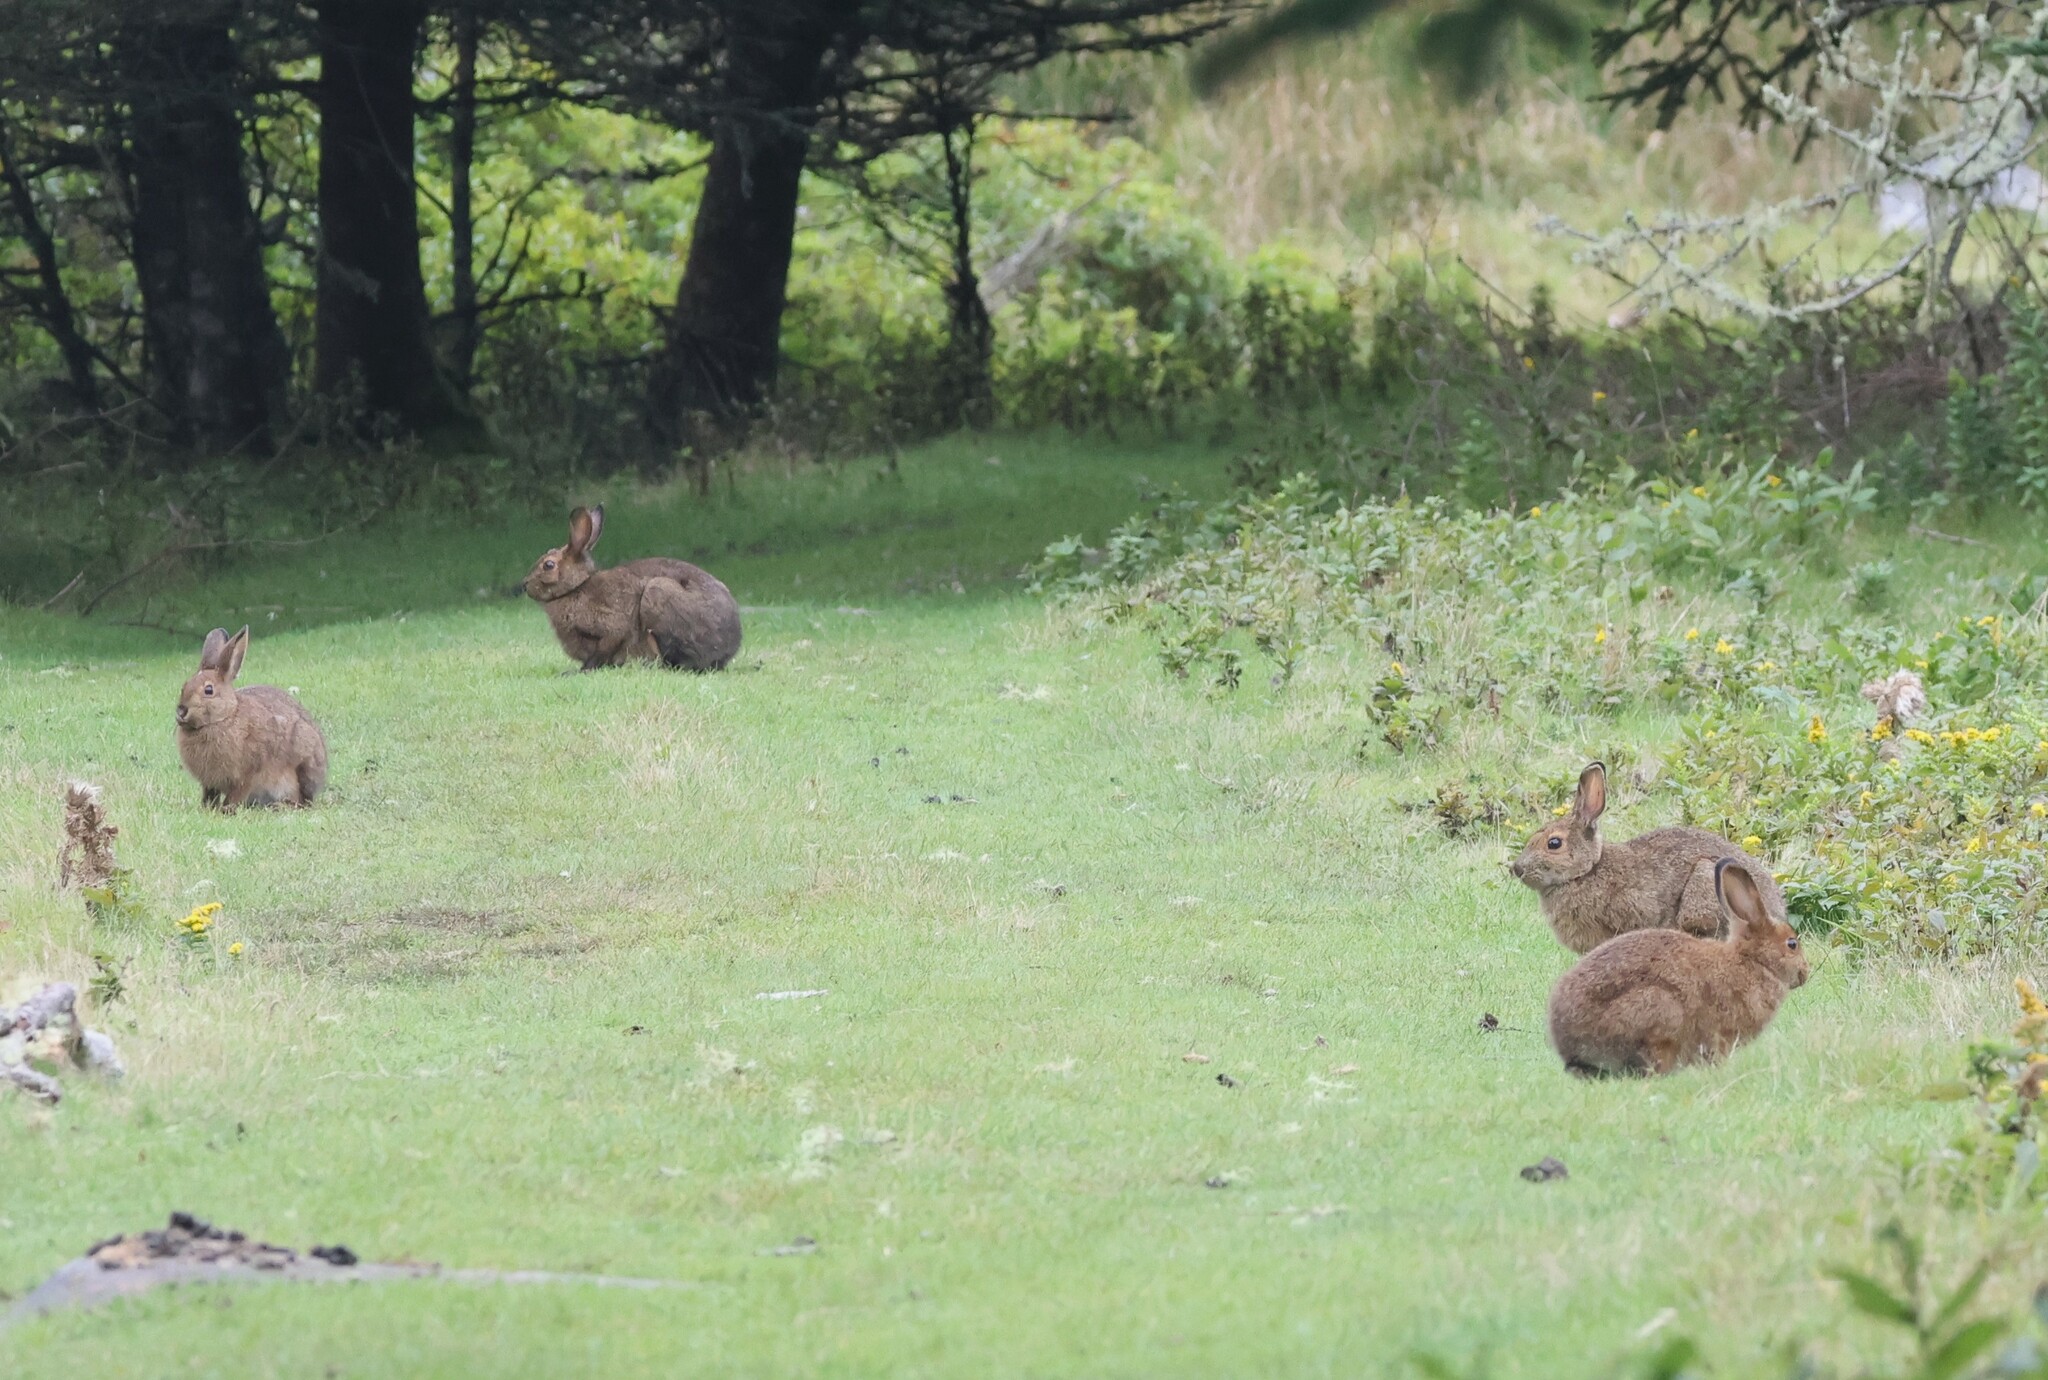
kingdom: Animalia
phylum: Chordata
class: Mammalia
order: Lagomorpha
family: Leporidae
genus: Lepus
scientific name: Lepus americanus
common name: Snowshoe hare
